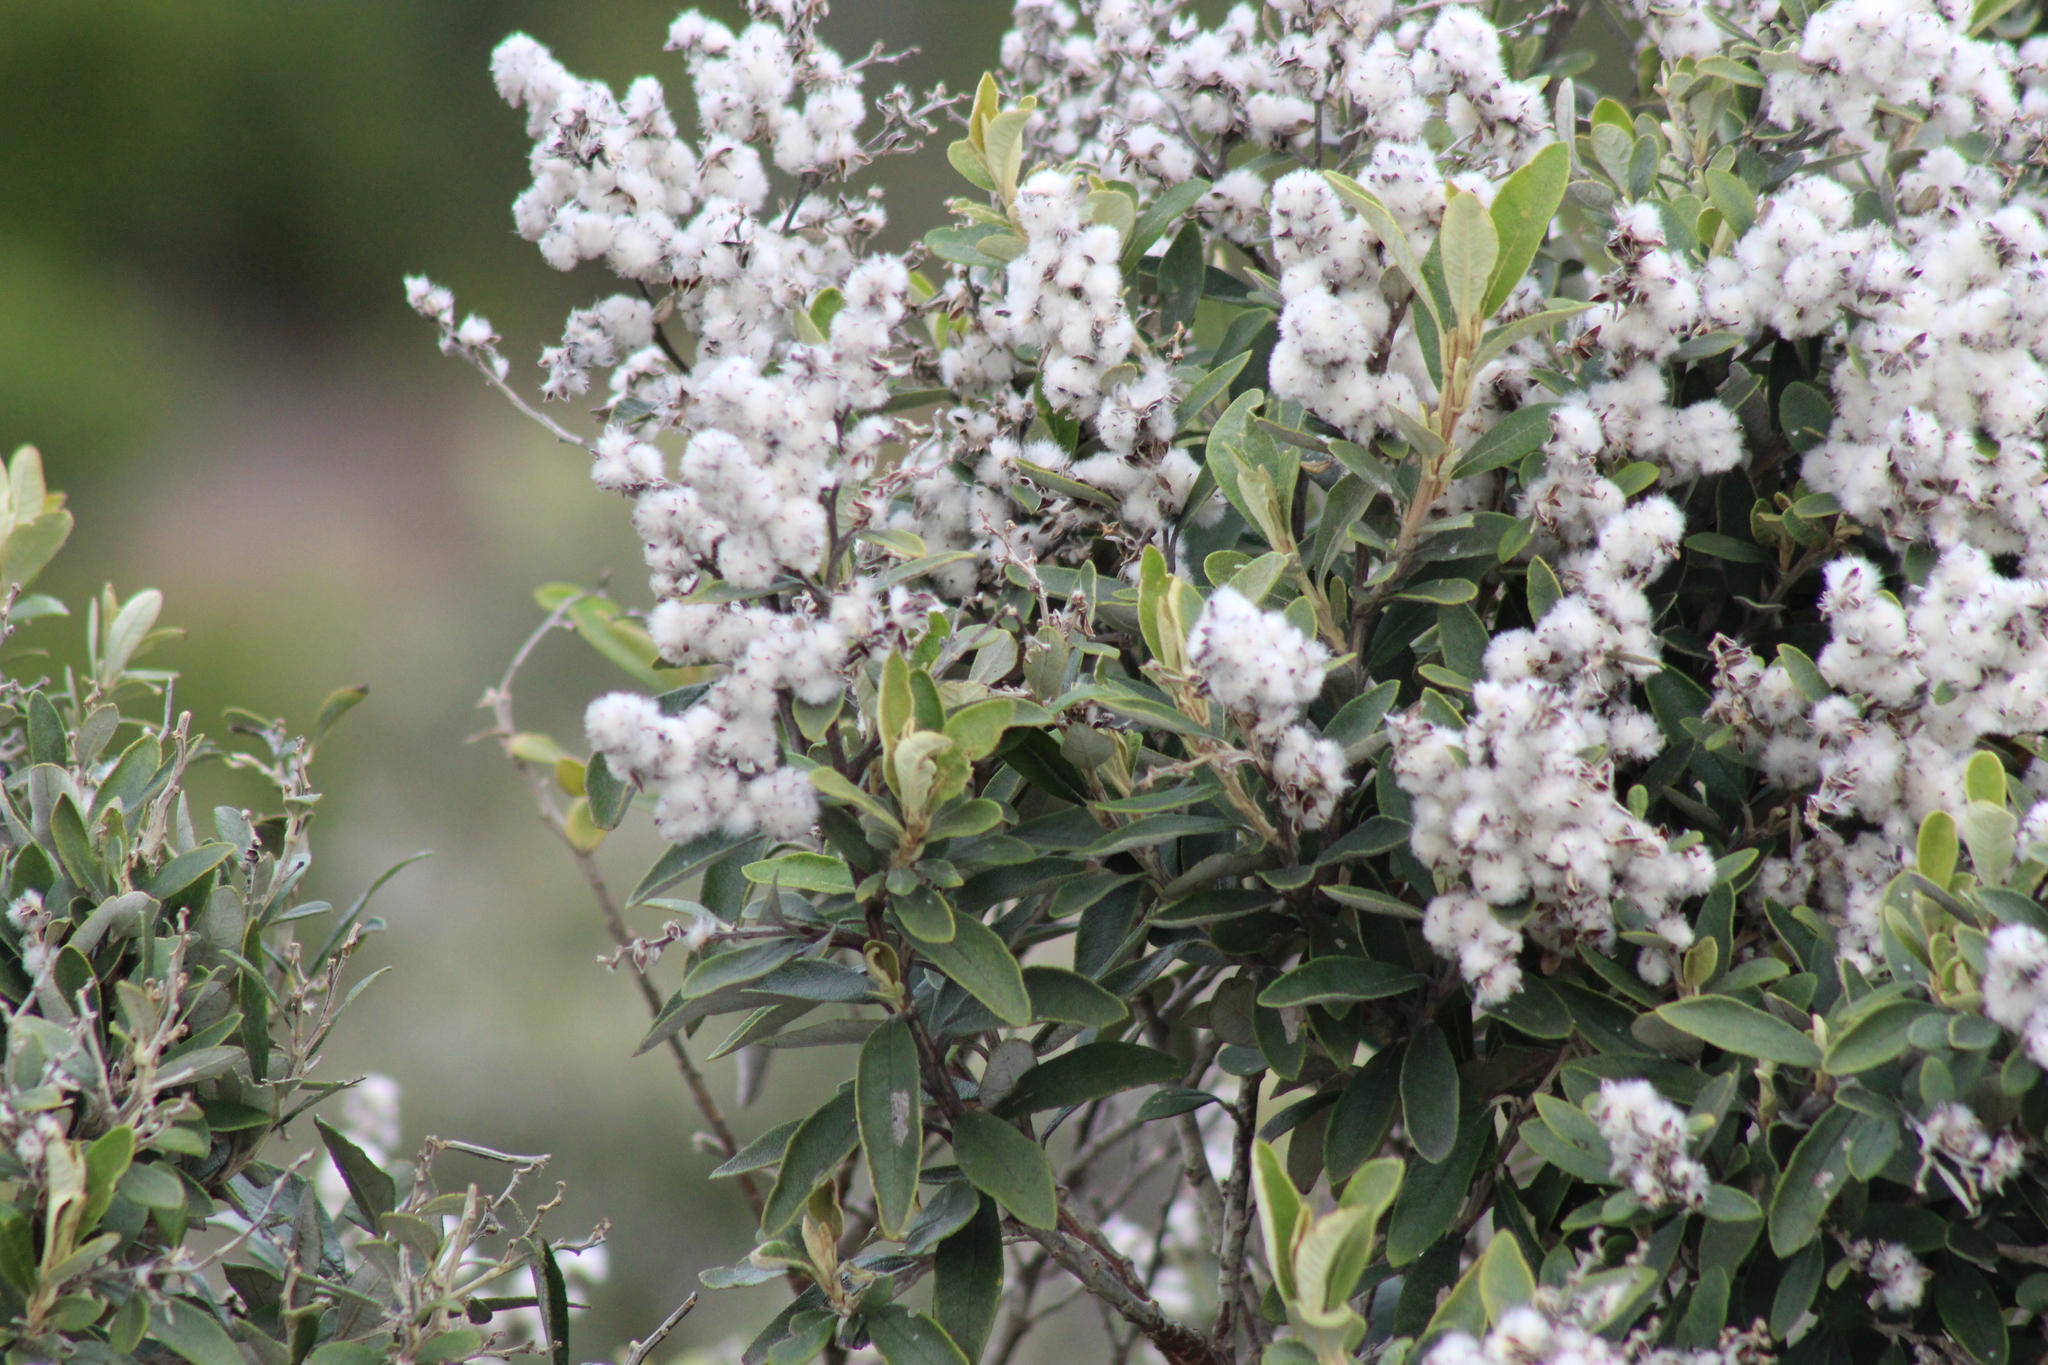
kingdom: Plantae
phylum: Tracheophyta
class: Magnoliopsida
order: Asterales
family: Asteraceae
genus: Tarchonanthus
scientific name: Tarchonanthus littoralis
